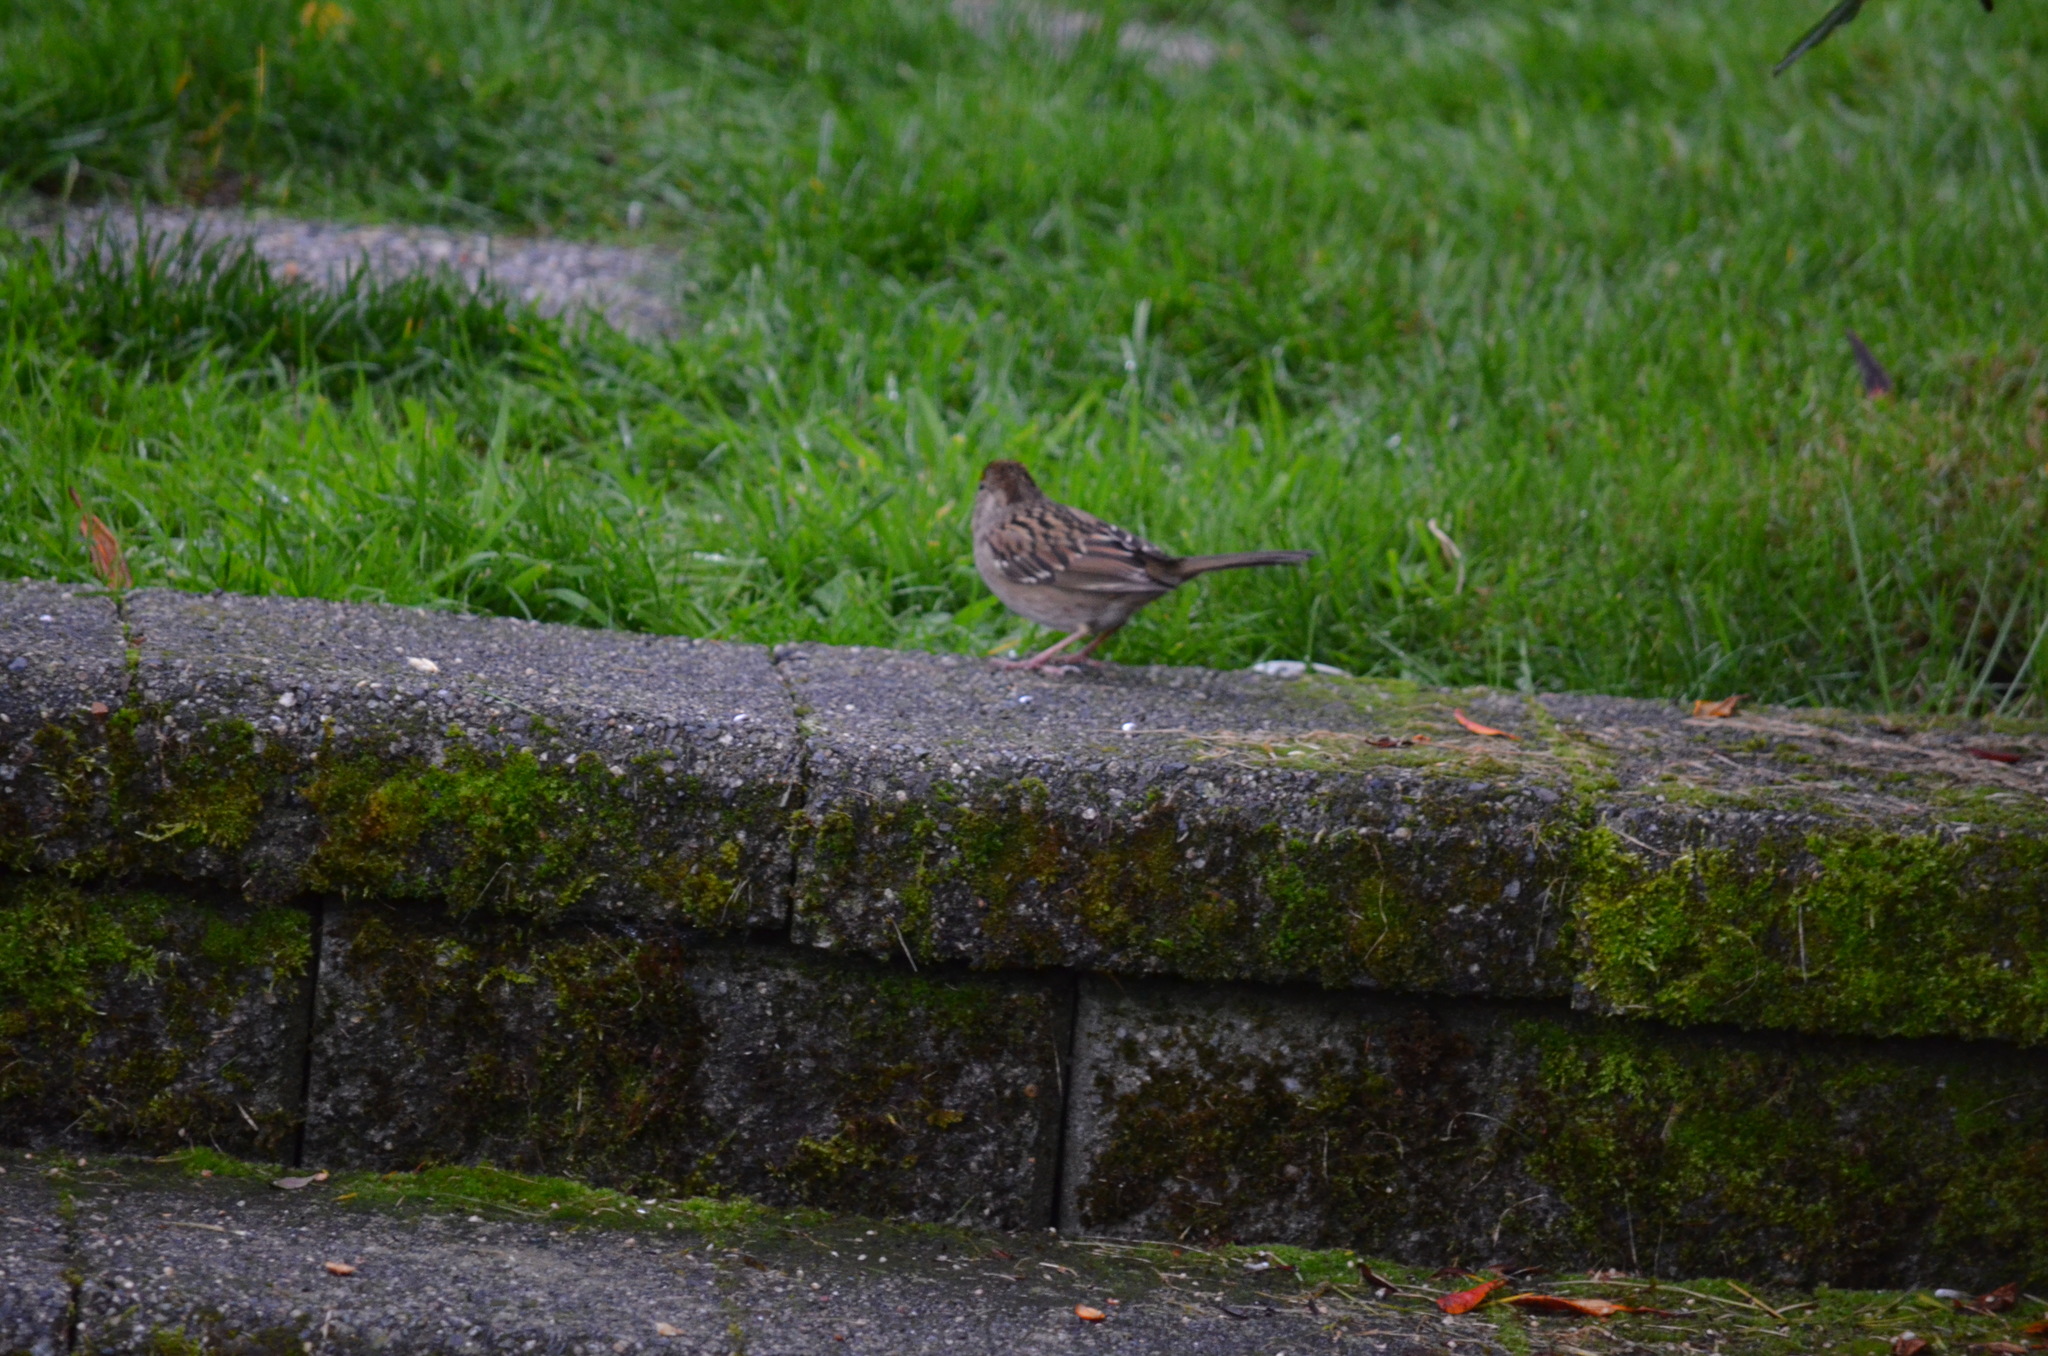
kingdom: Animalia
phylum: Chordata
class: Aves
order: Passeriformes
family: Passerellidae
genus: Zonotrichia
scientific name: Zonotrichia atricapilla
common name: Golden-crowned sparrow
